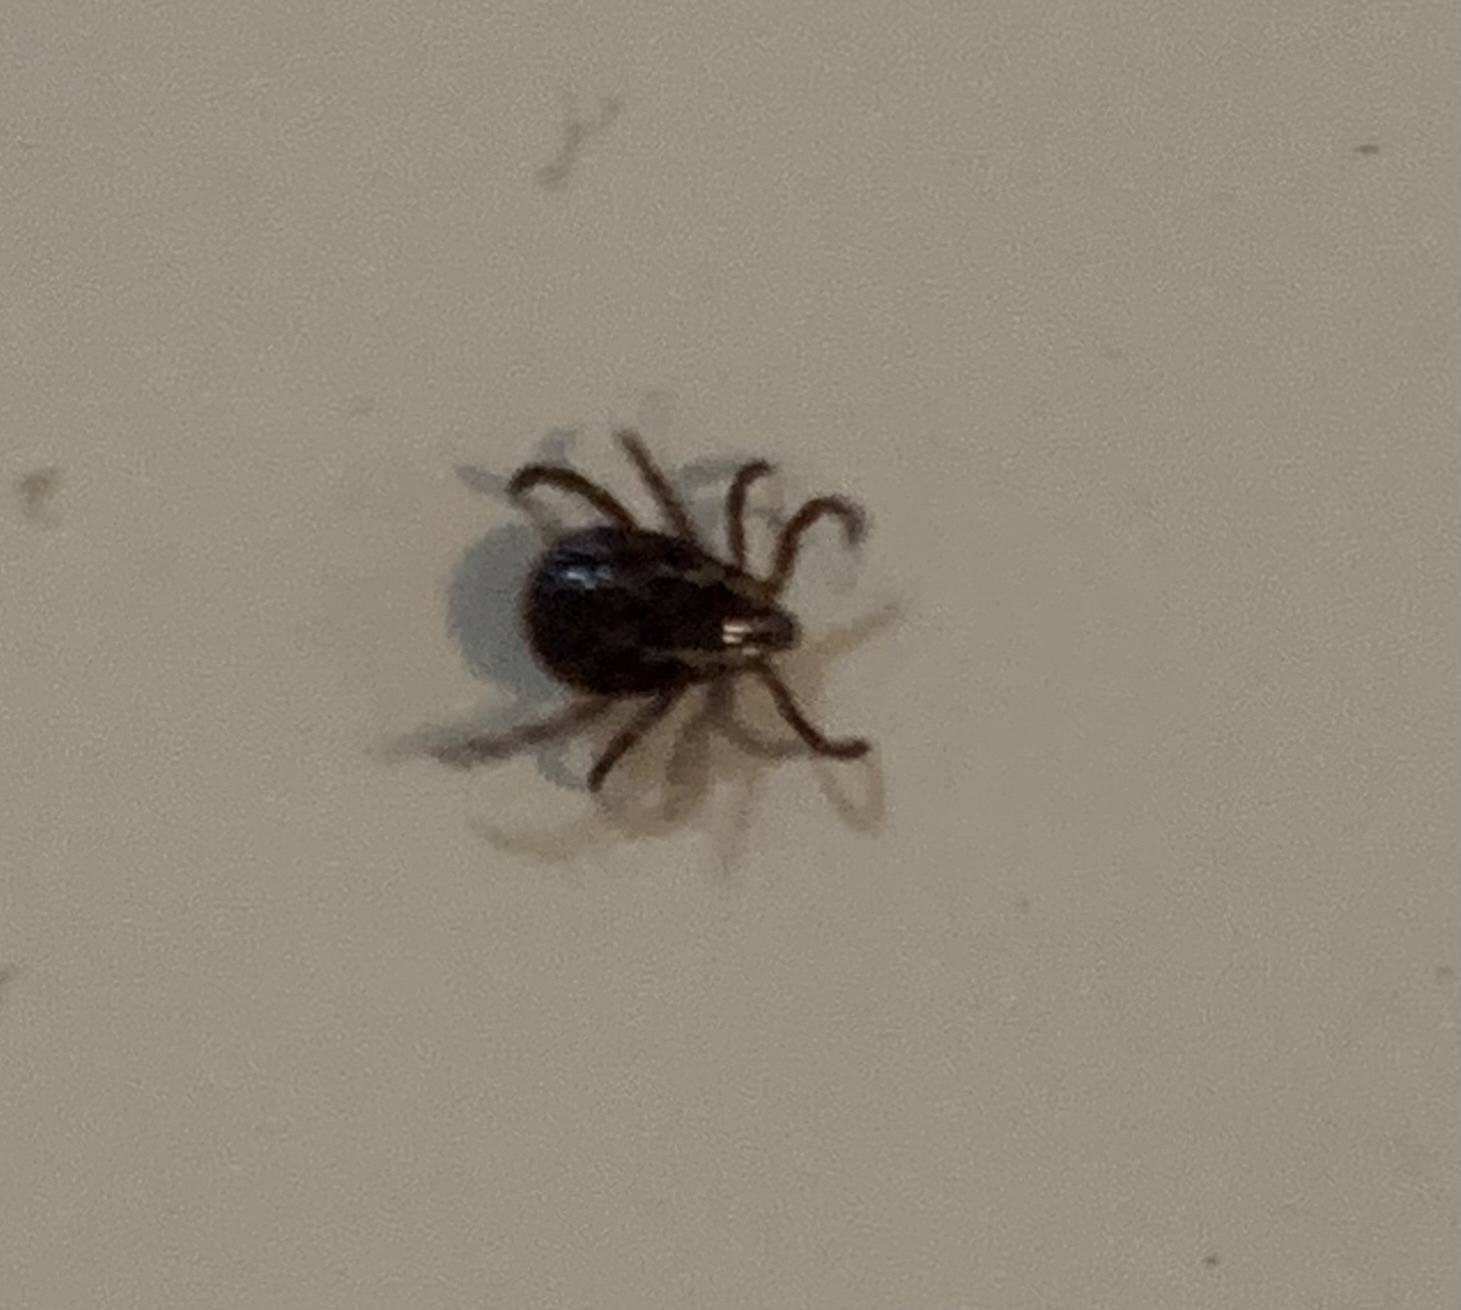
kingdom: Animalia
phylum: Arthropoda
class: Arachnida
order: Ixodida
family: Ixodidae
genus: Dermacentor
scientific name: Dermacentor variabilis
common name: American dog tick
